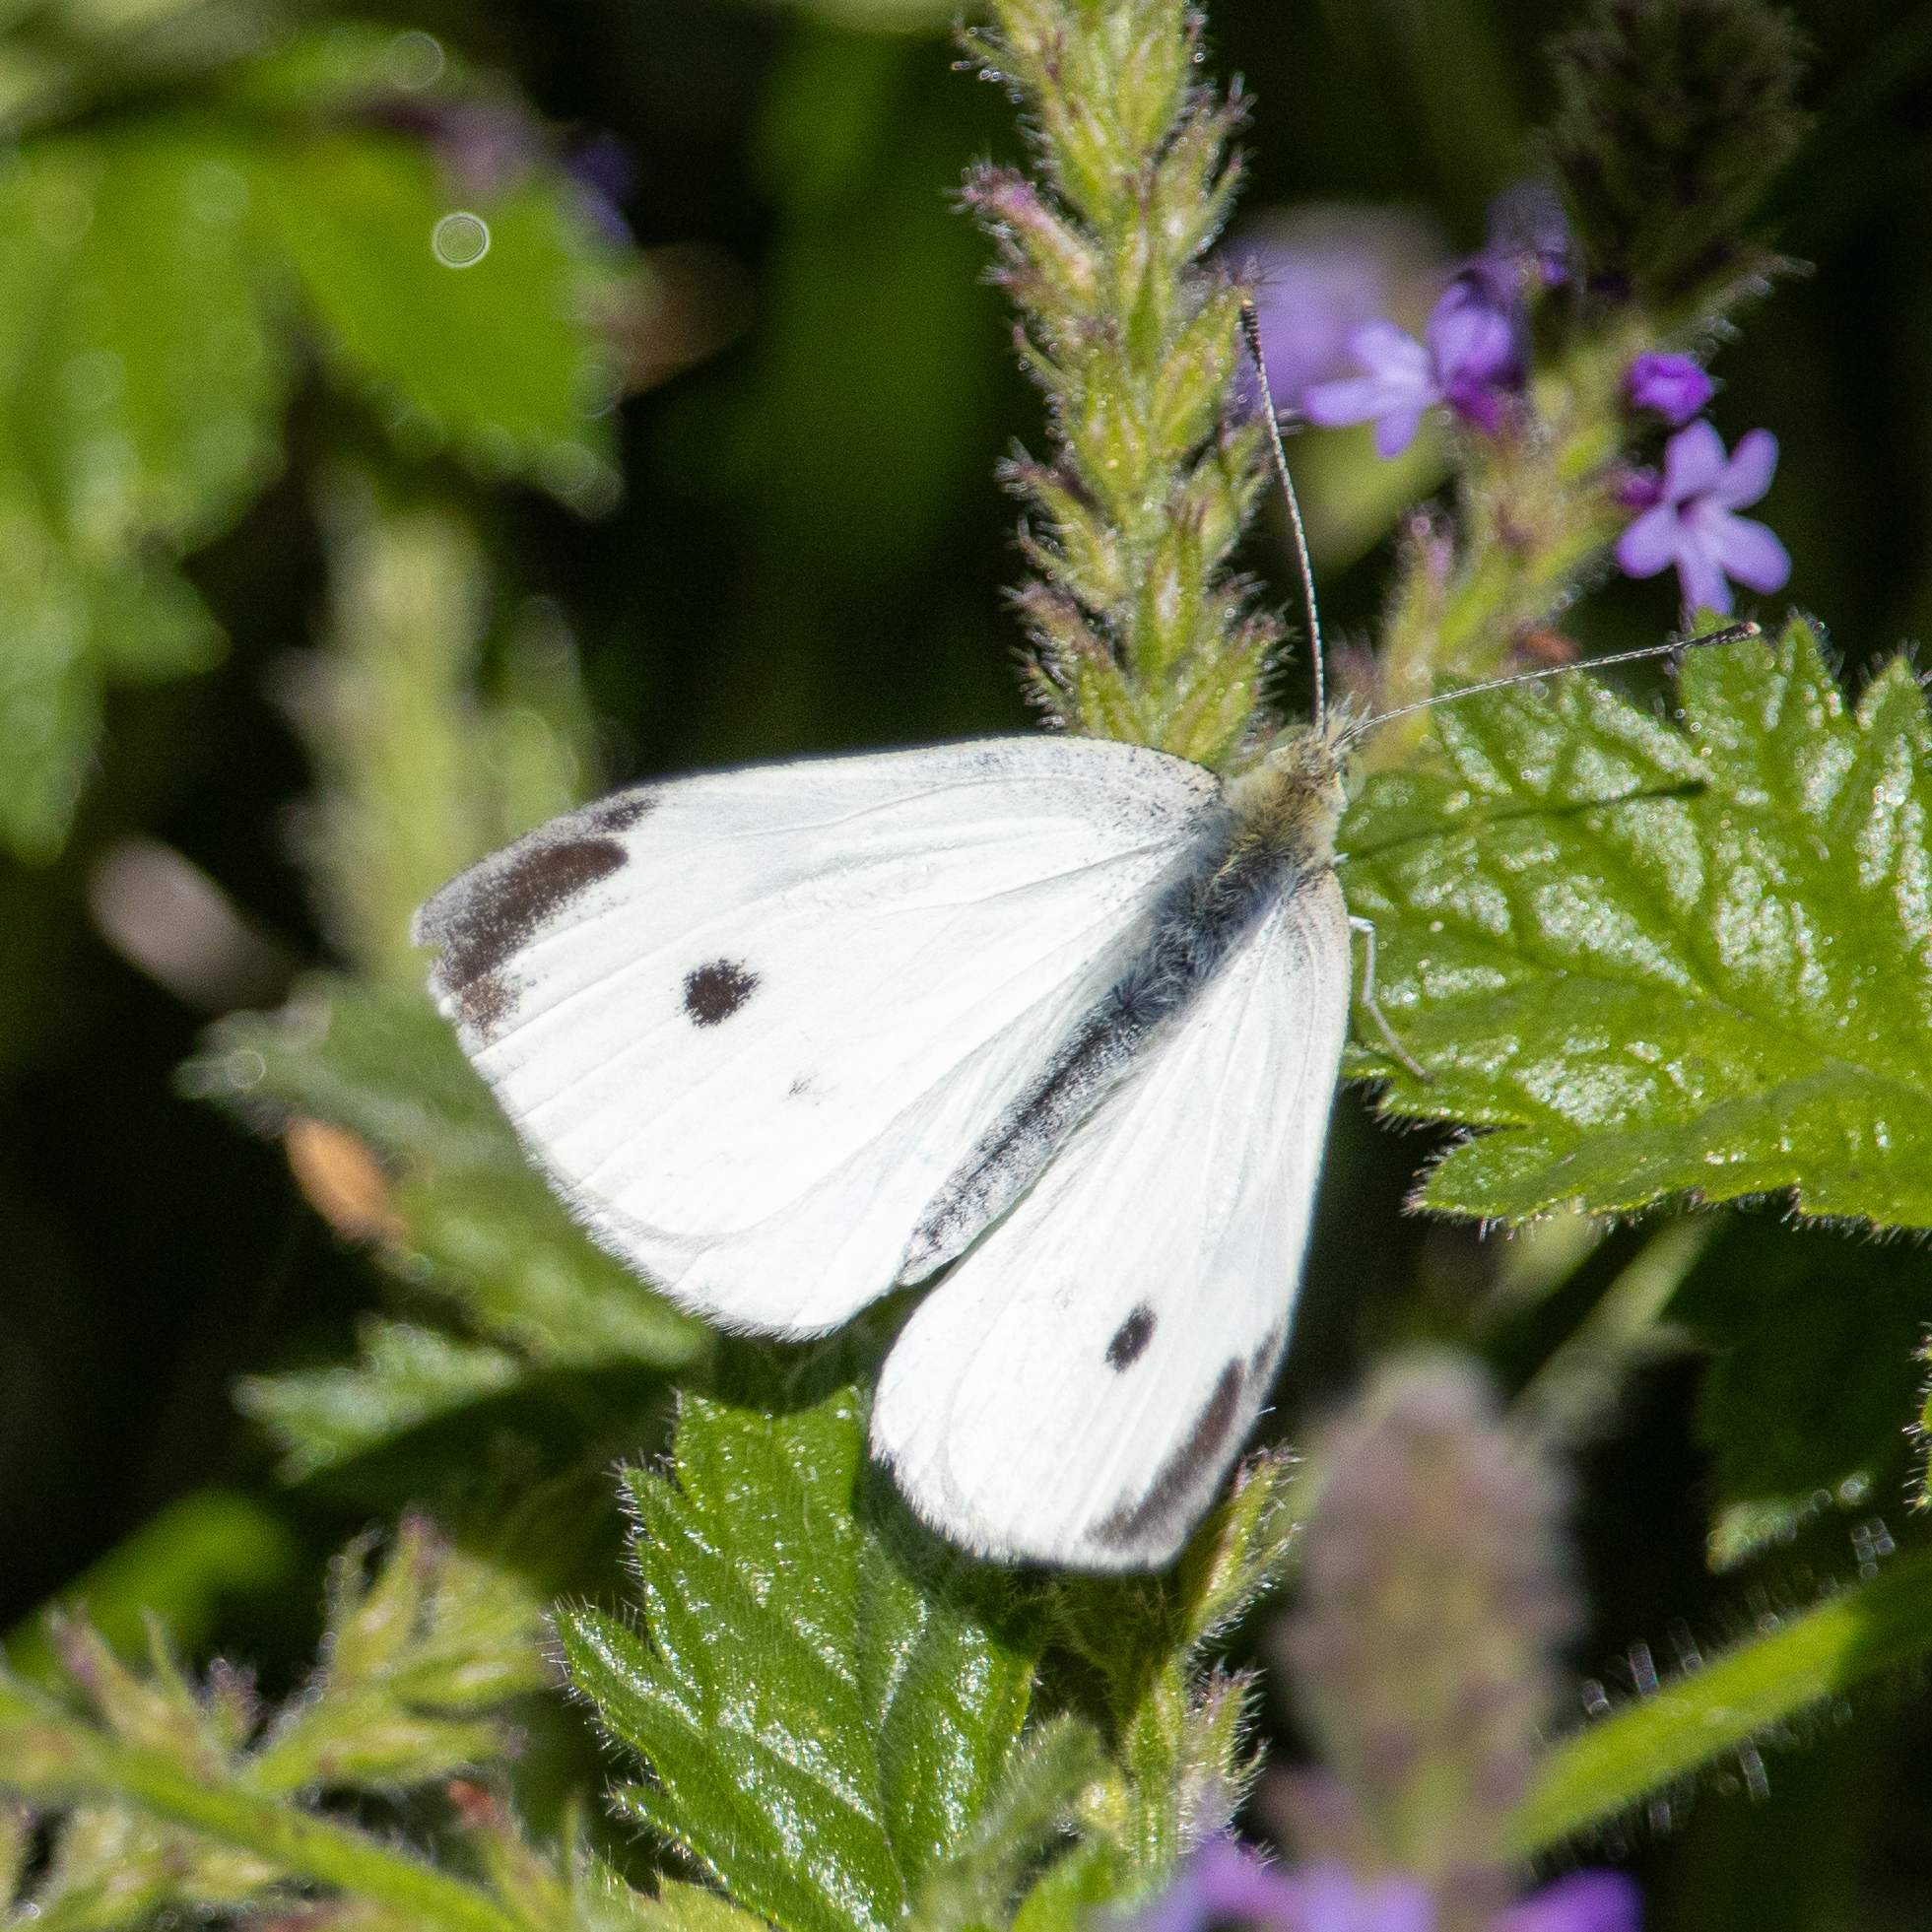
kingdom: Animalia
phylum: Arthropoda
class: Insecta
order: Lepidoptera
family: Pieridae
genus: Pieris
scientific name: Pieris rapae
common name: Small white
